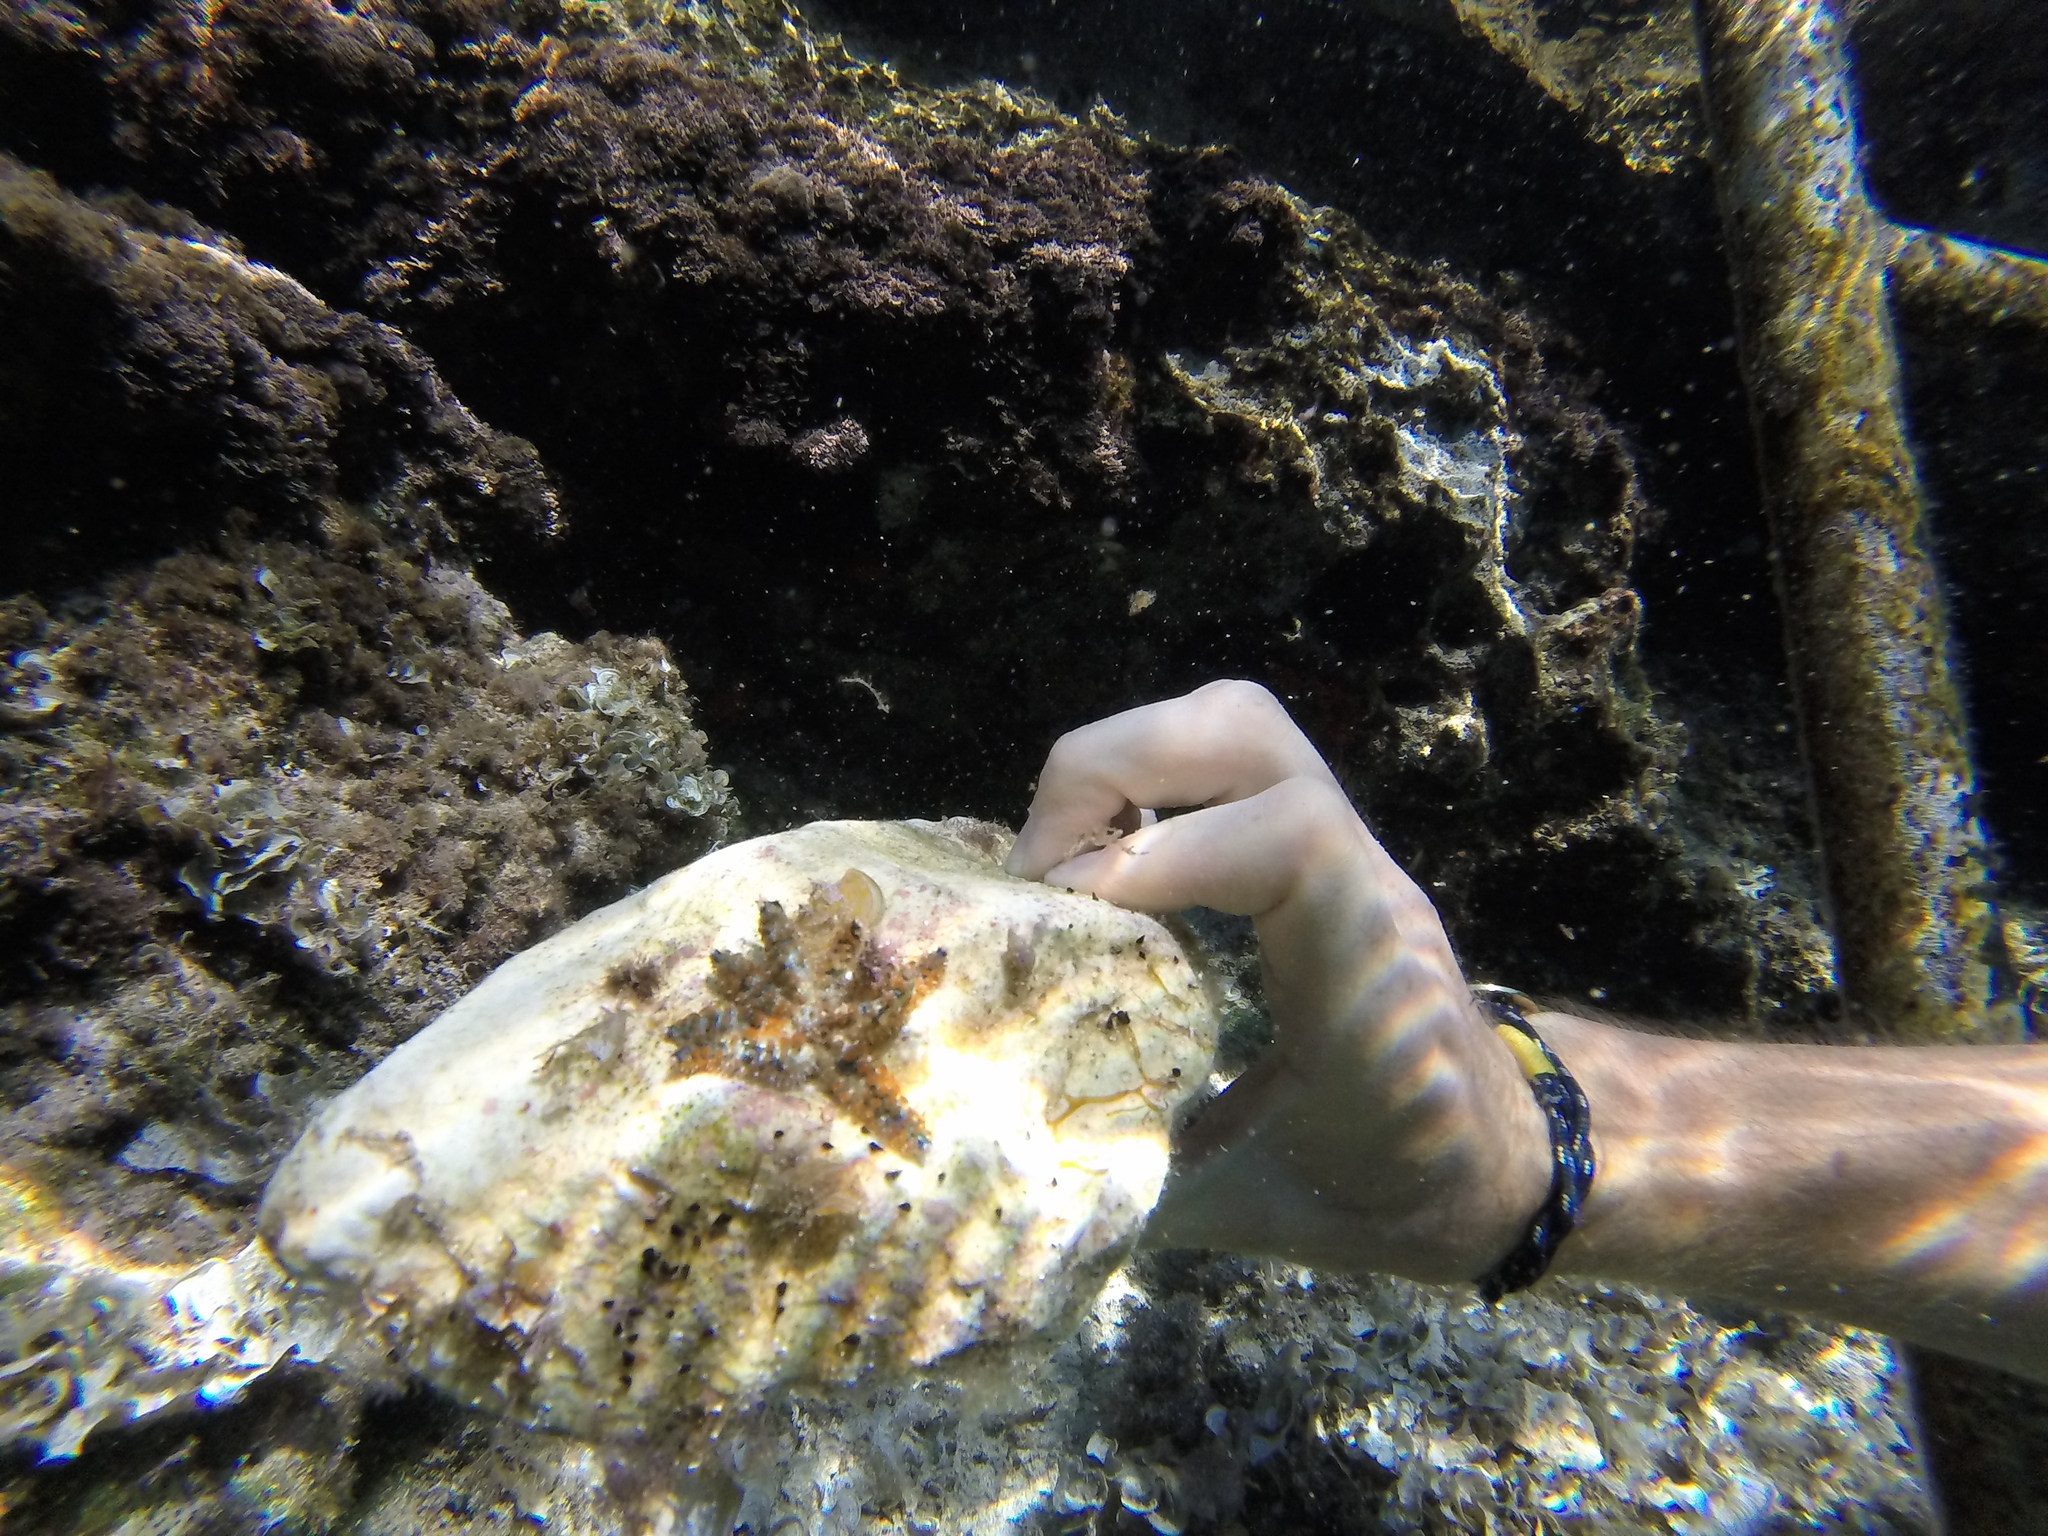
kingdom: Animalia
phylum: Echinodermata
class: Asteroidea
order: Forcipulatida
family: Asteriidae
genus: Coscinasterias
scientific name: Coscinasterias tenuispina
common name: Blue spiny starfish
